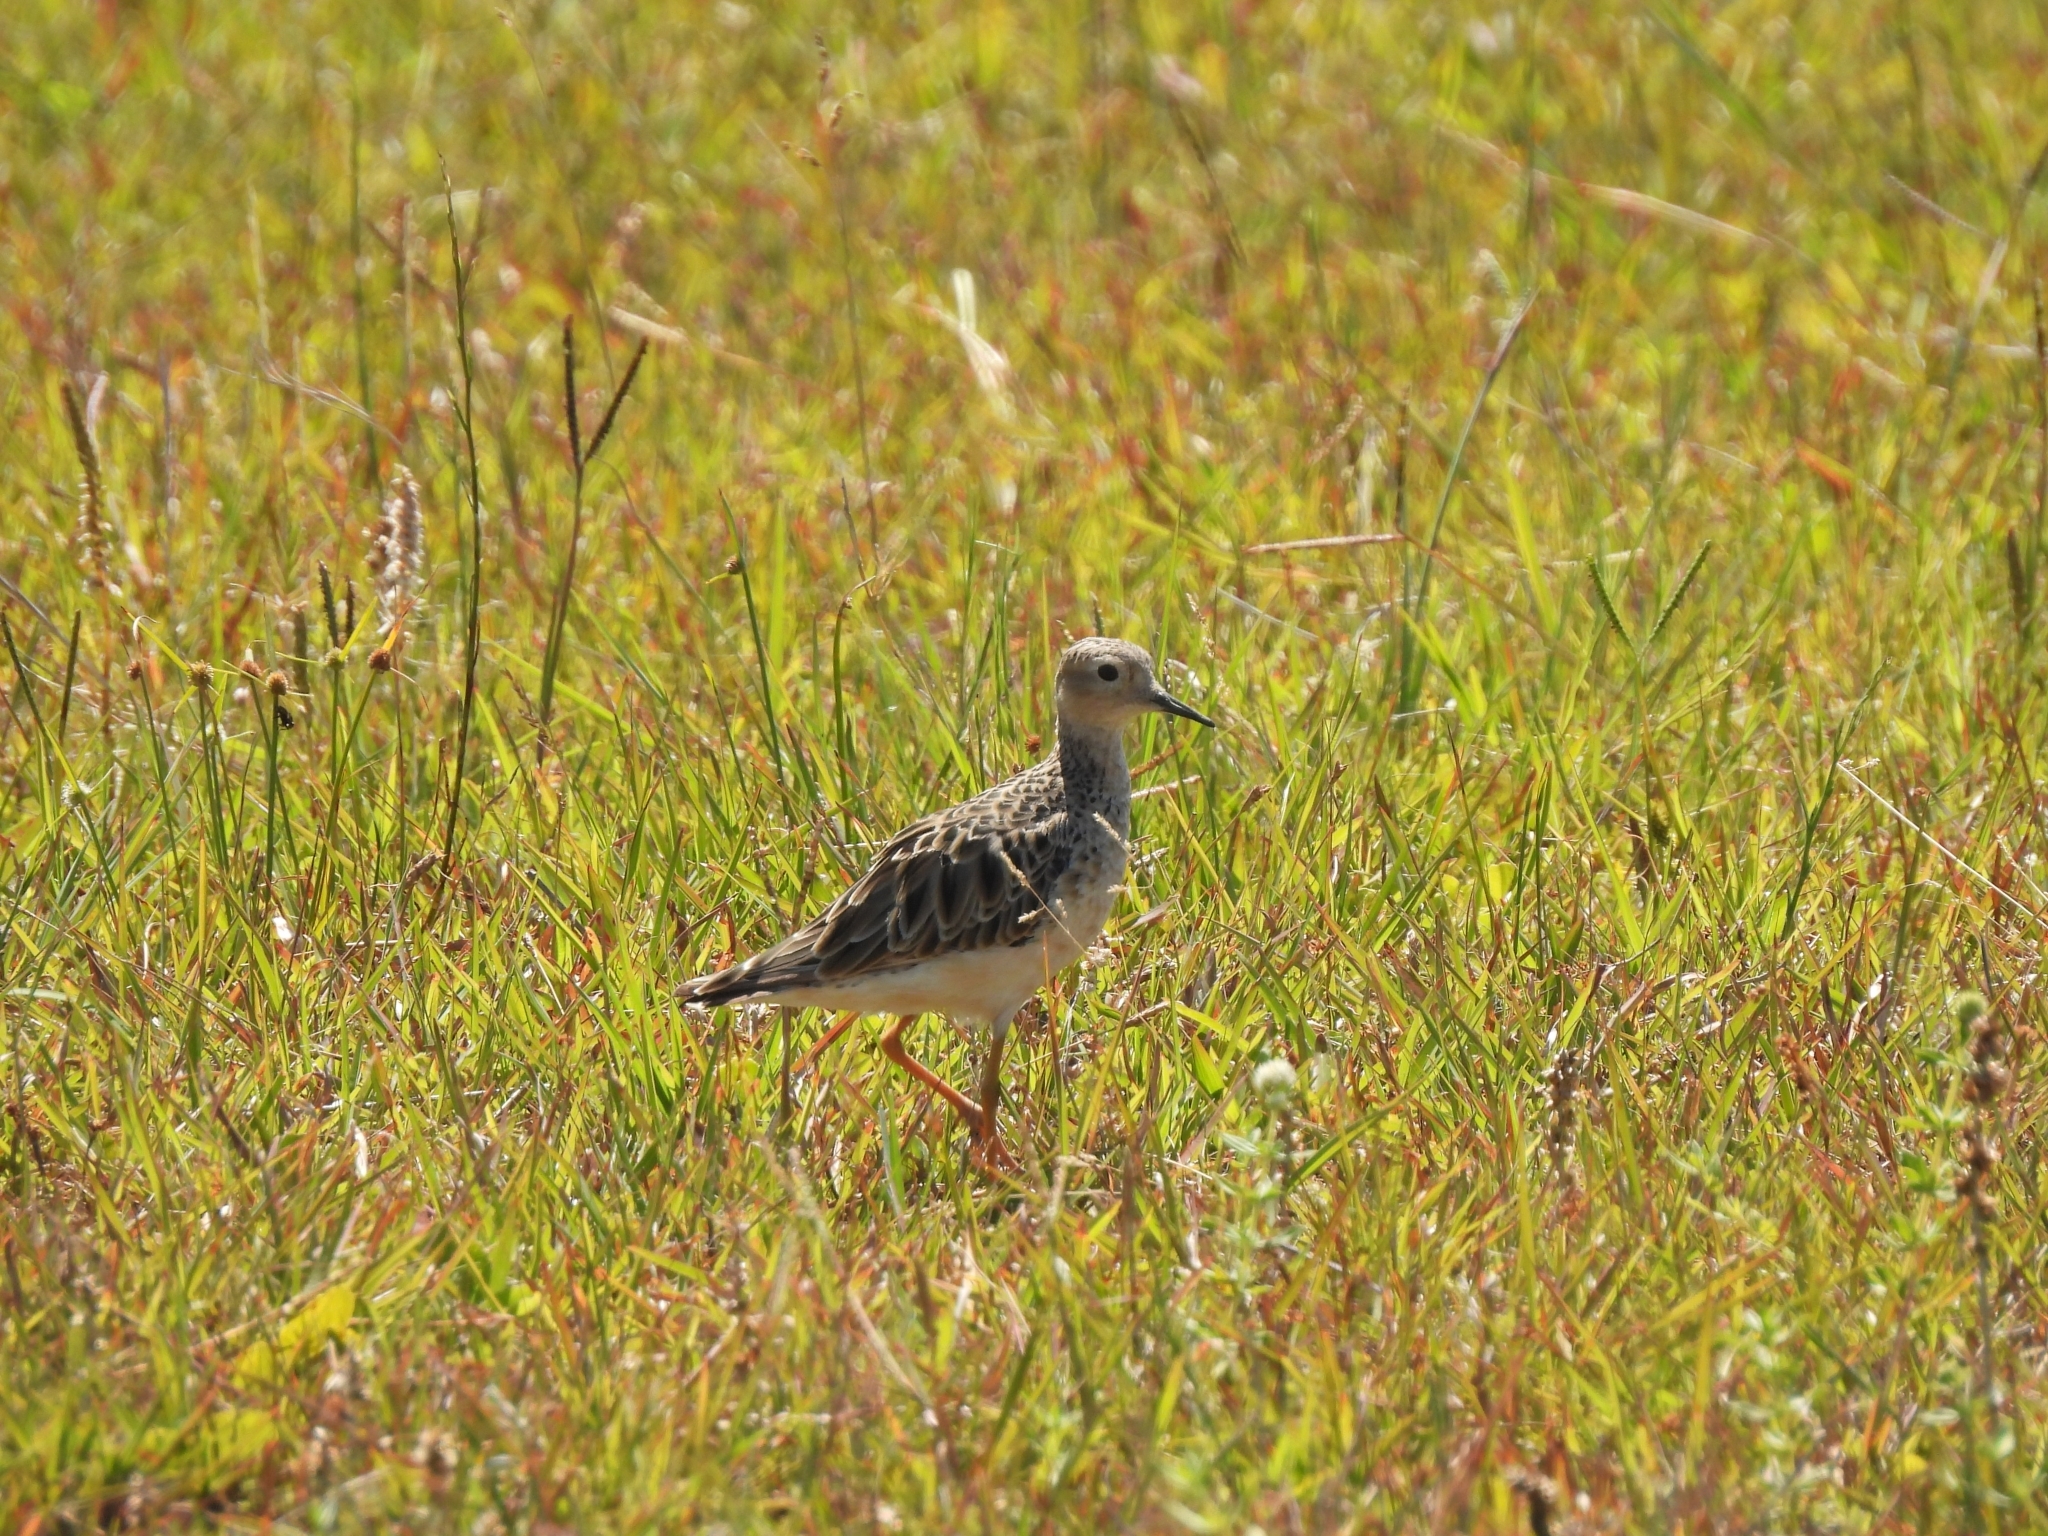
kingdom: Animalia
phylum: Chordata
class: Aves
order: Charadriiformes
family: Scolopacidae
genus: Calidris
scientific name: Calidris subruficollis
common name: Buff-breasted sandpiper
